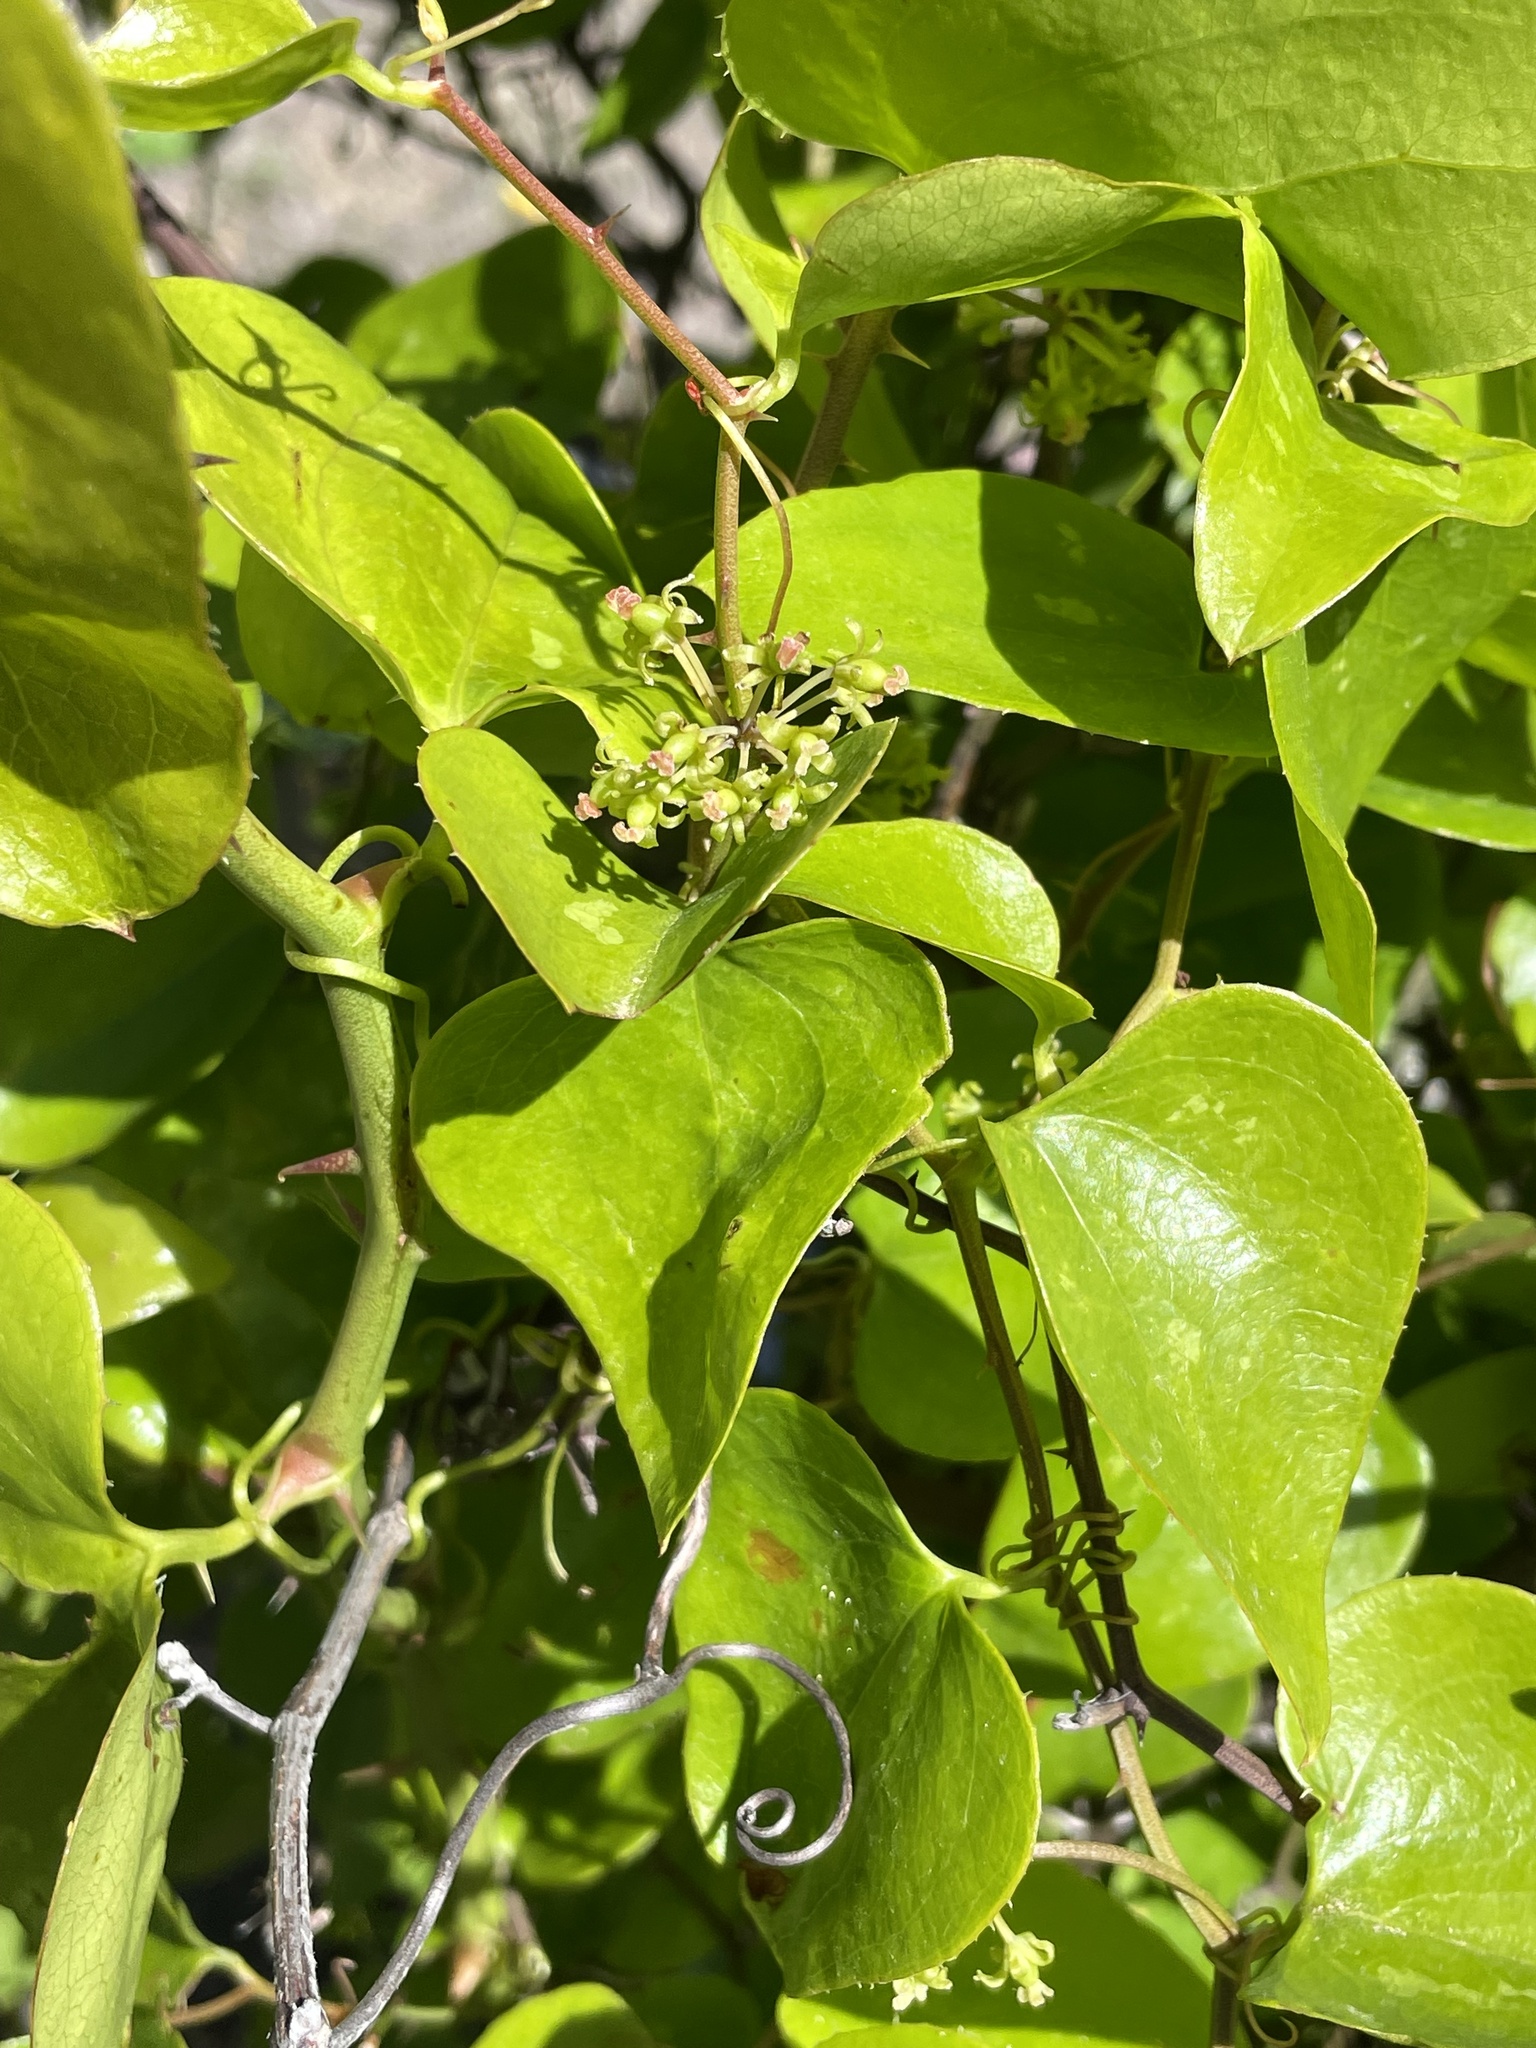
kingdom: Plantae
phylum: Tracheophyta
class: Liliopsida
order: Liliales
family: Smilacaceae
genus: Smilax
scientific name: Smilax bona-nox
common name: Catbrier
